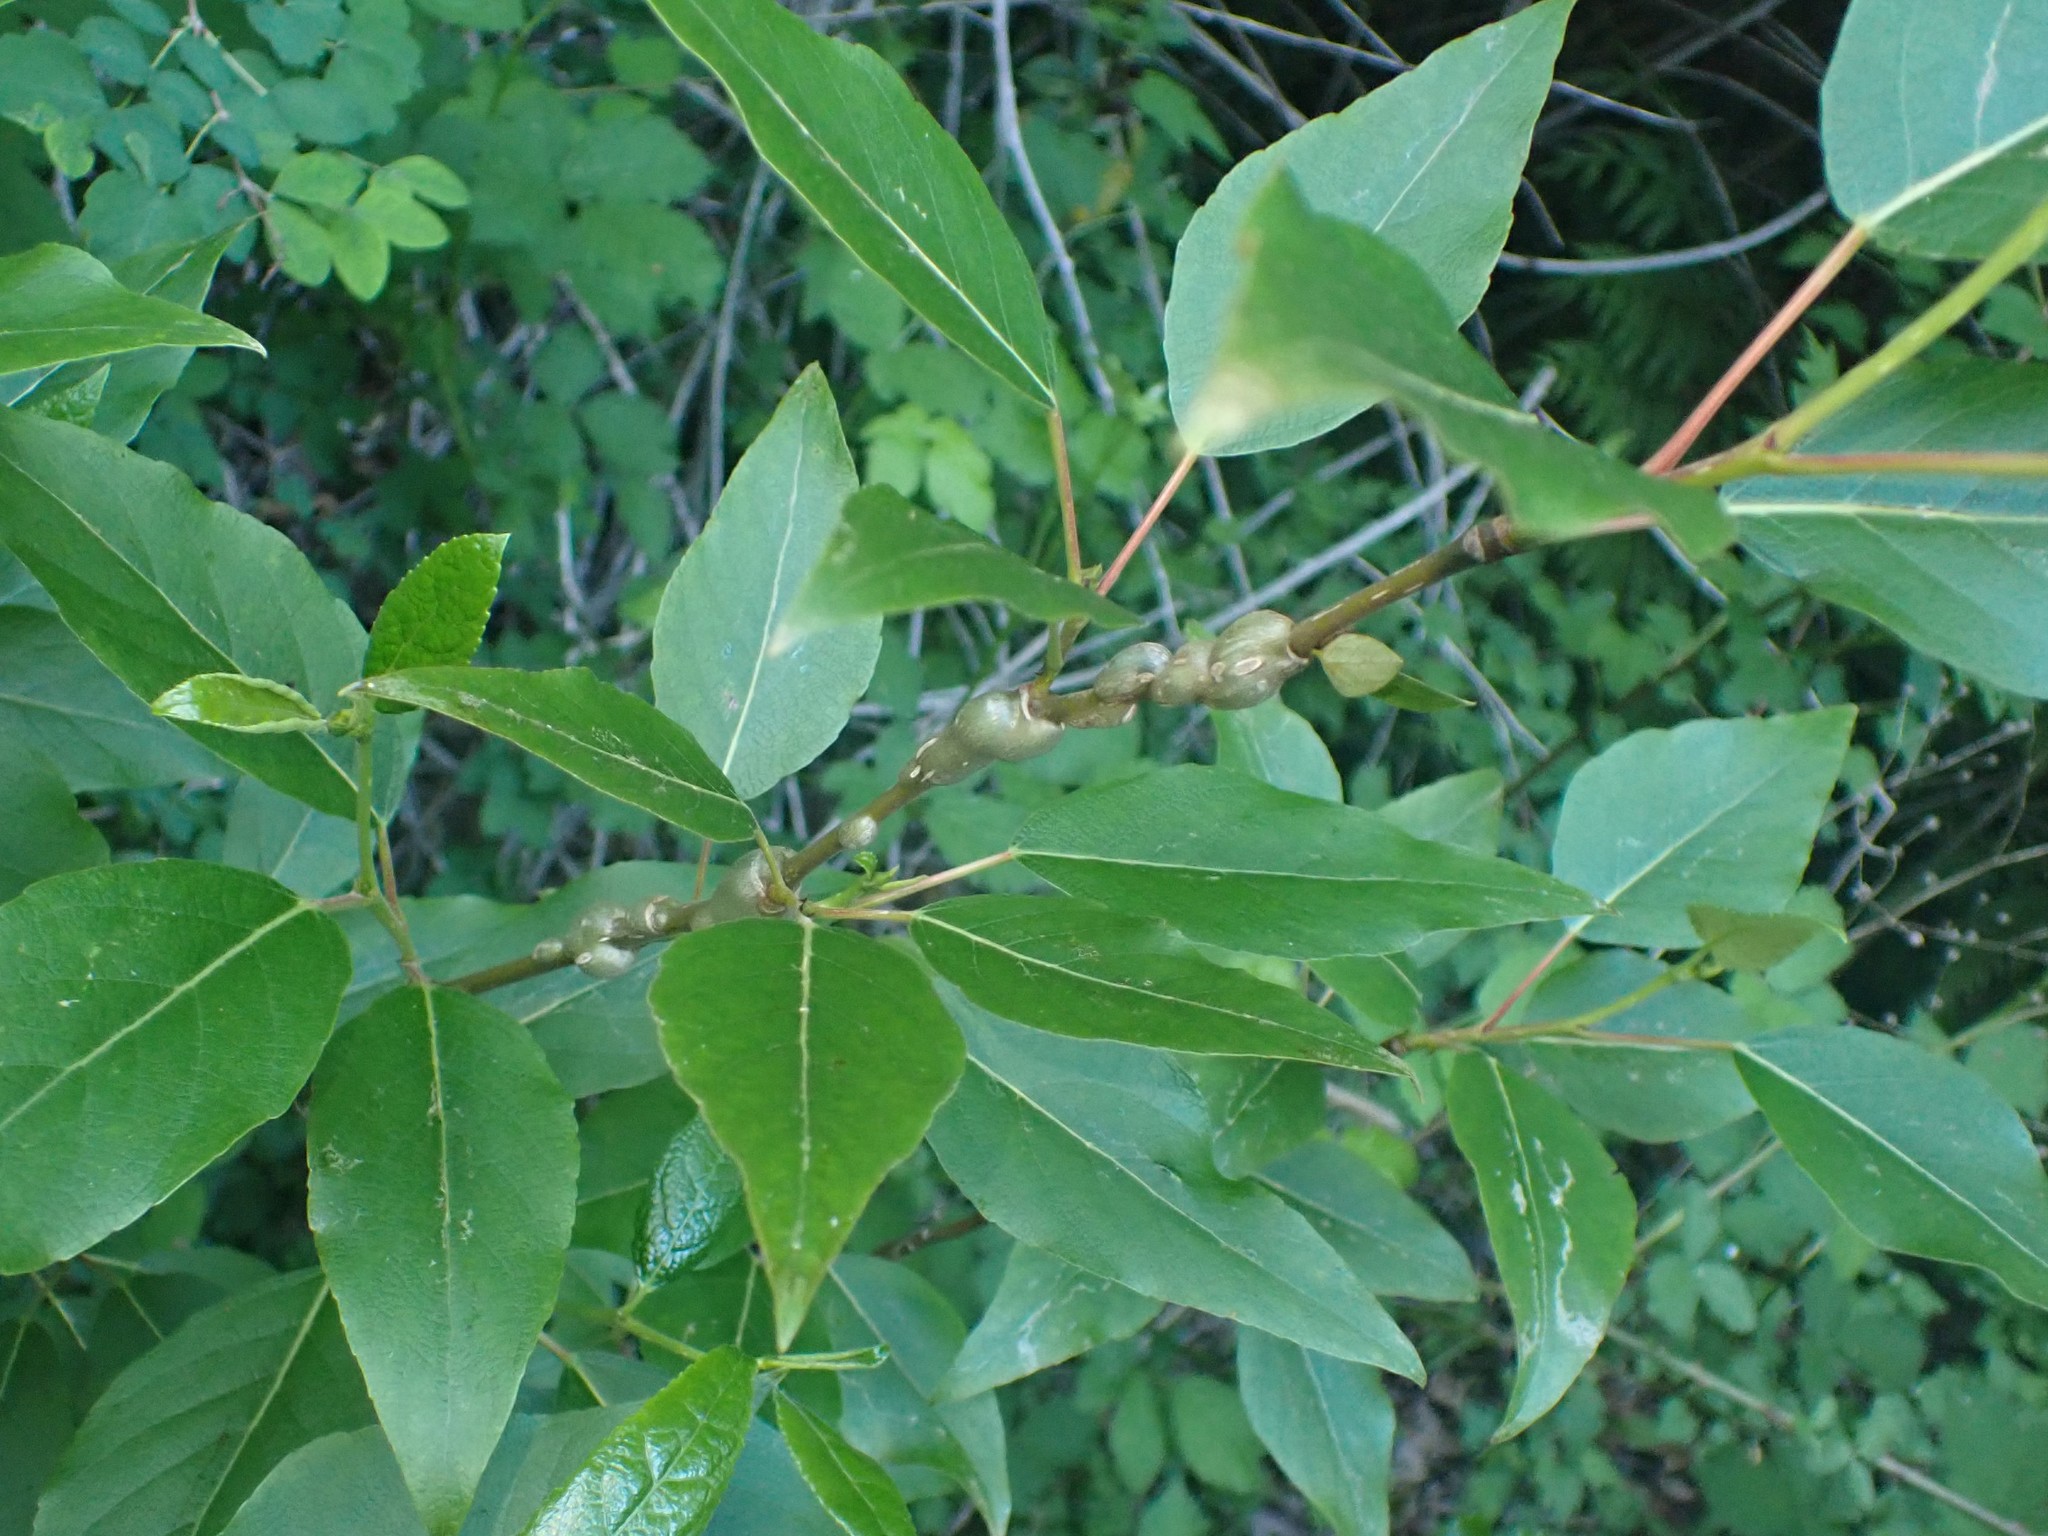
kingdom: Animalia
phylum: Arthropoda
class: Insecta
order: Diptera
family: Agromyzidae
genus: Euhexomyza
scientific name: Euhexomyza schineri
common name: Poplar twiggall fly
